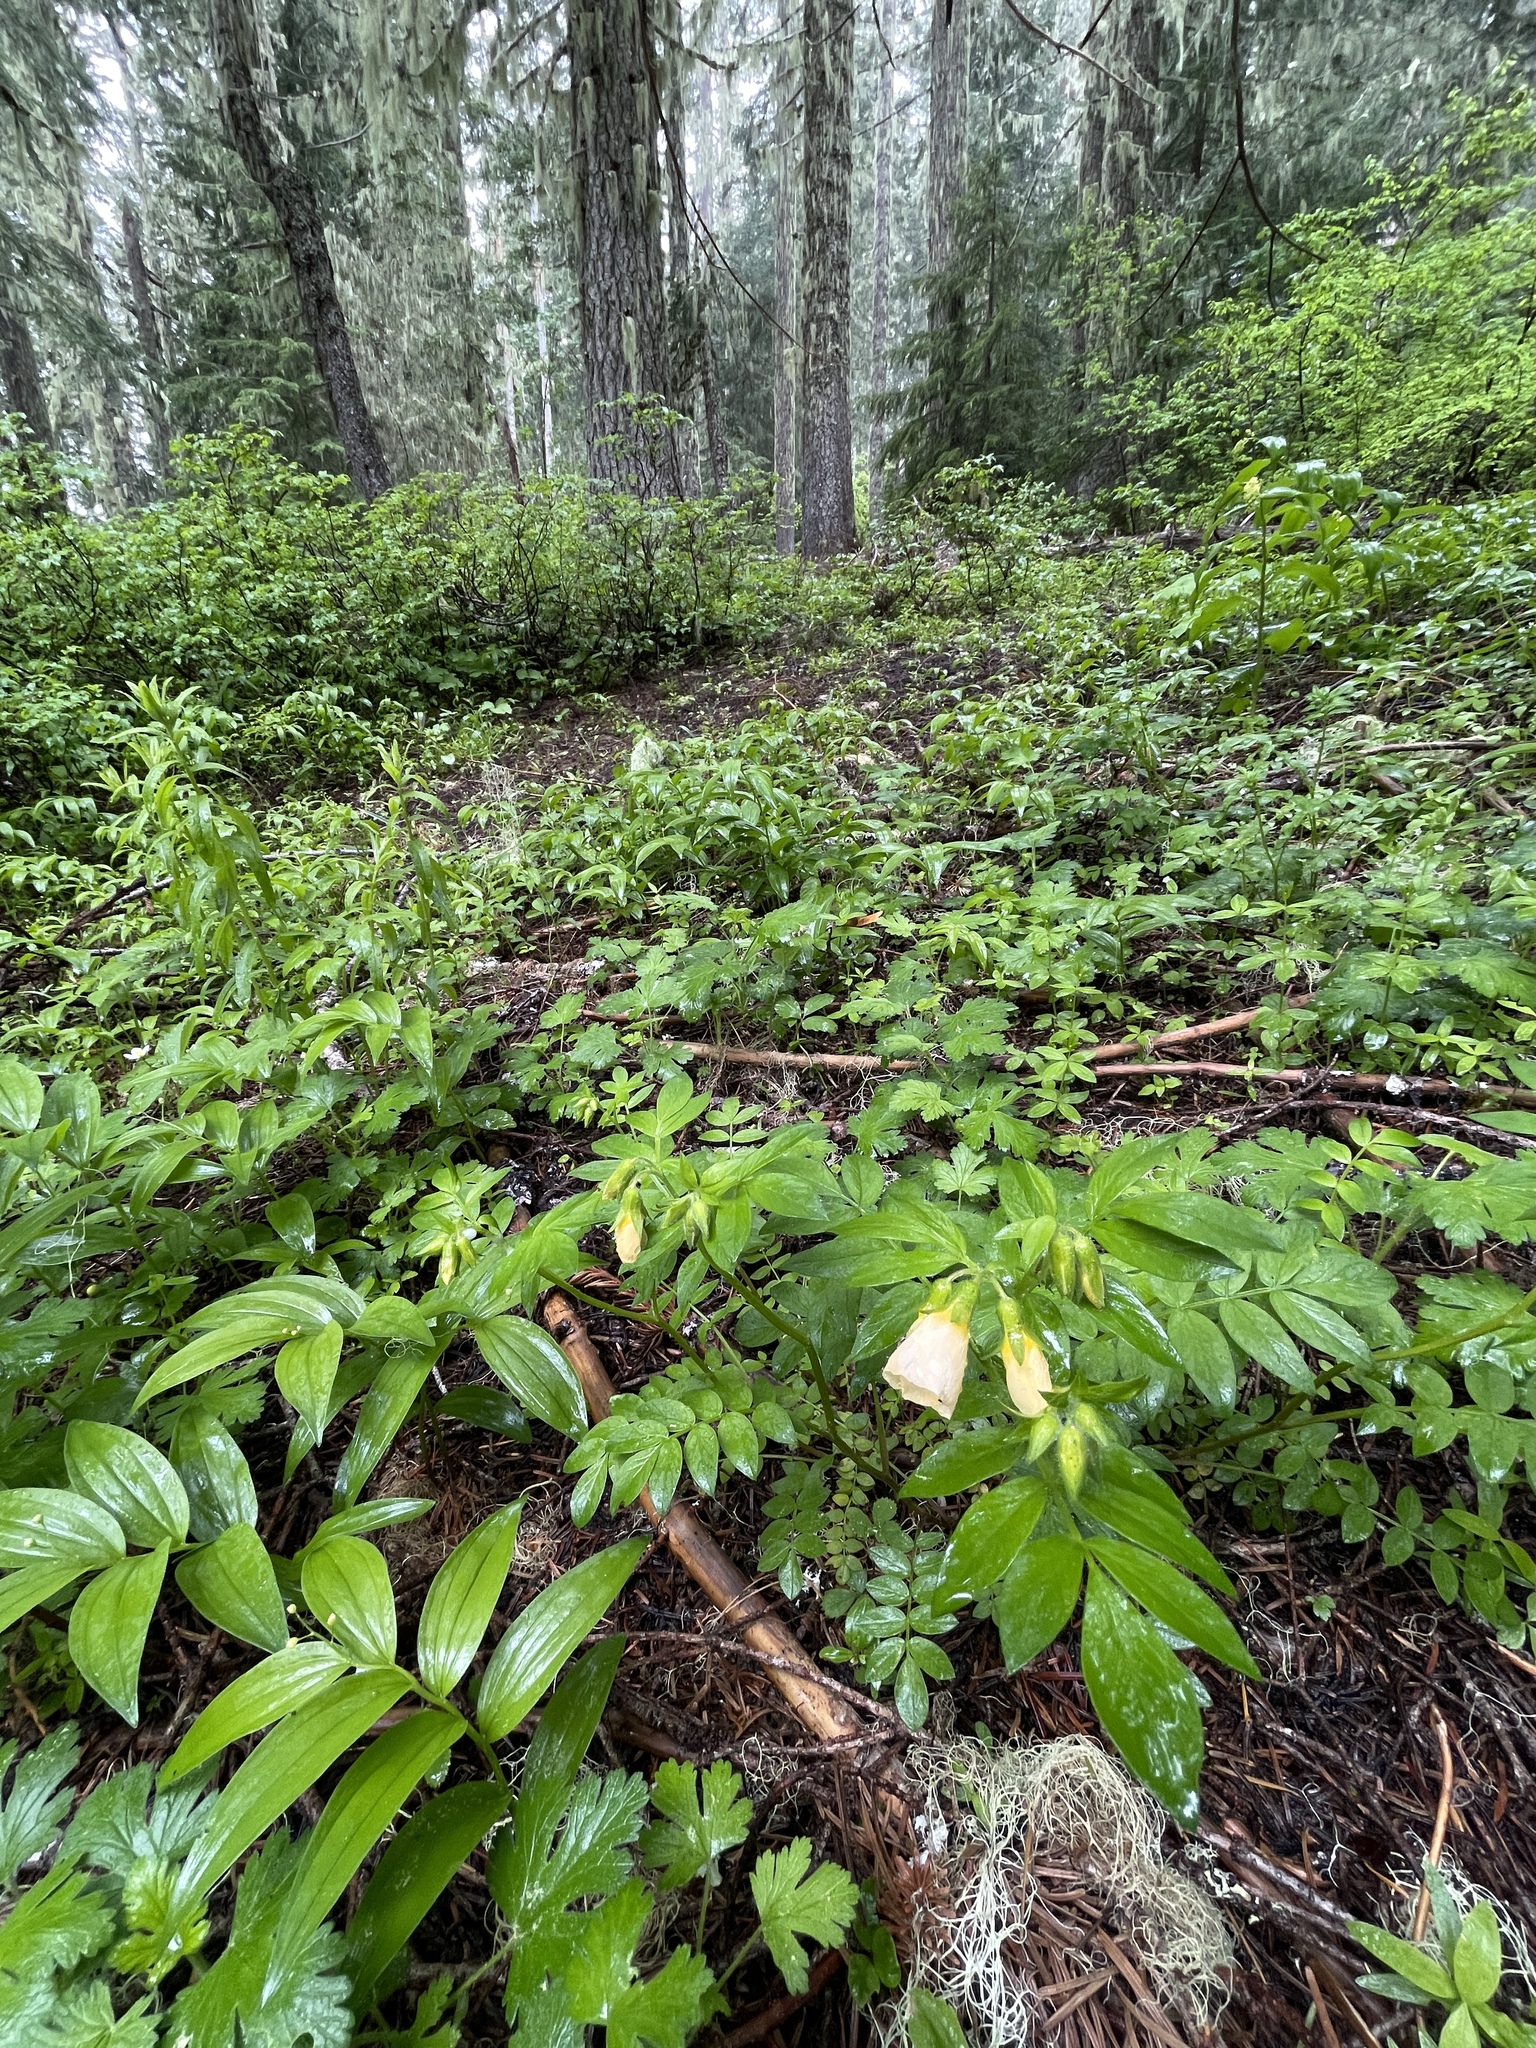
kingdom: Plantae
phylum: Tracheophyta
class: Magnoliopsida
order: Ericales
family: Polemoniaceae
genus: Polemonium
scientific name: Polemonium carneum
